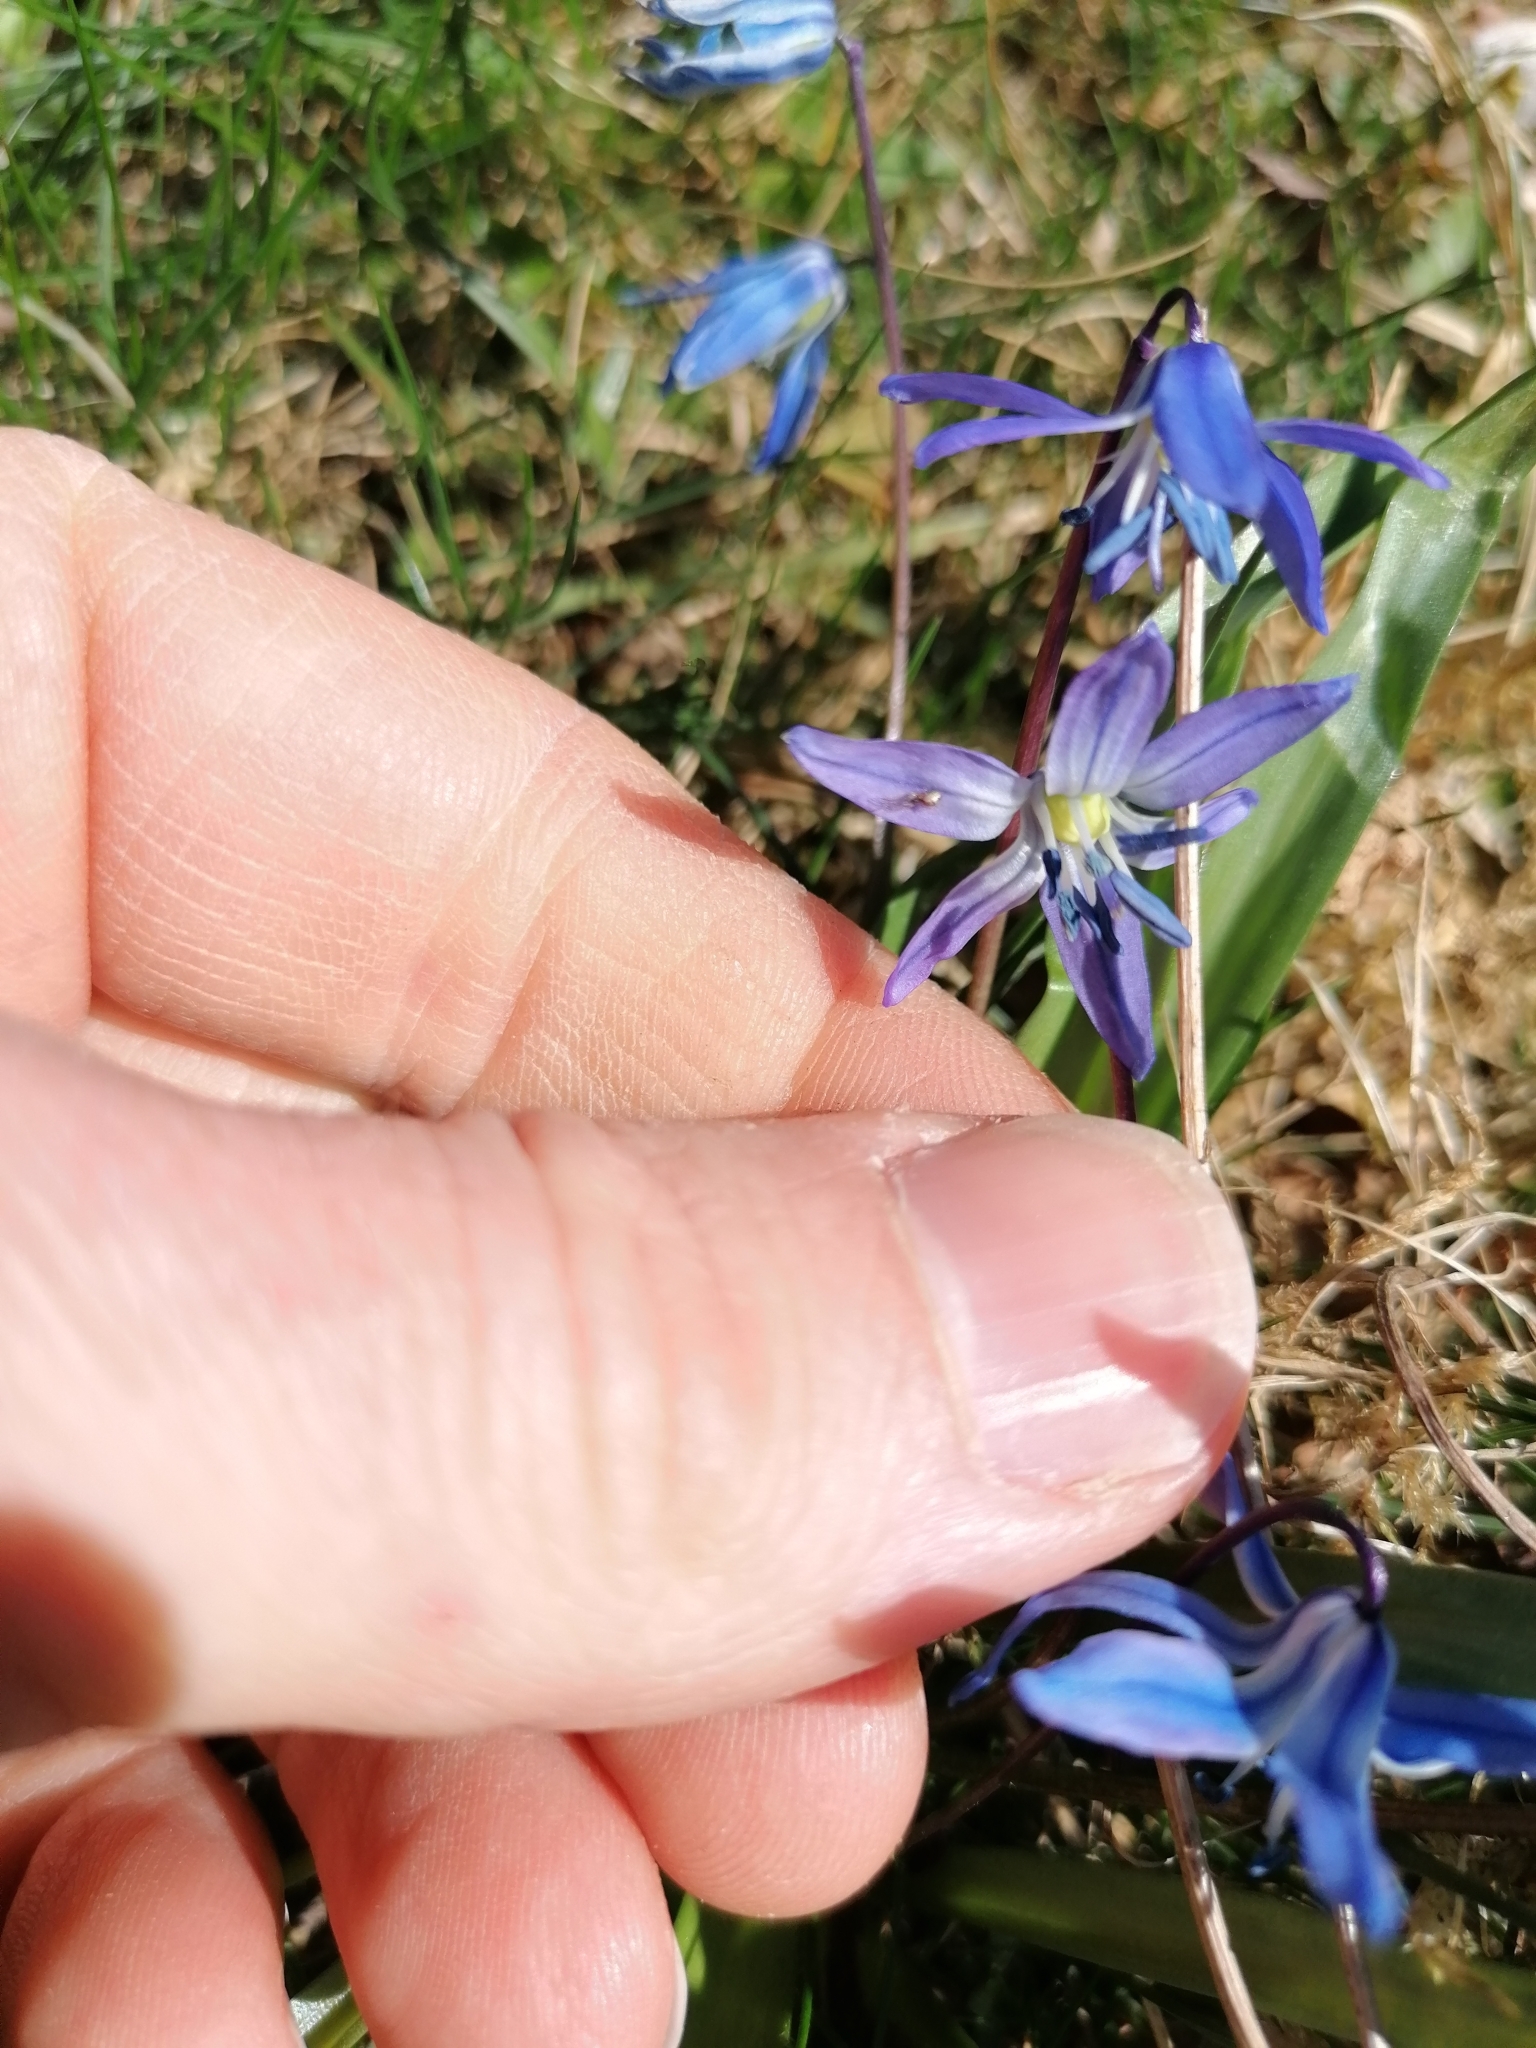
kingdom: Plantae
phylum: Tracheophyta
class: Liliopsida
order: Asparagales
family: Asparagaceae
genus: Scilla
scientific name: Scilla siberica
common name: Siberian squill
